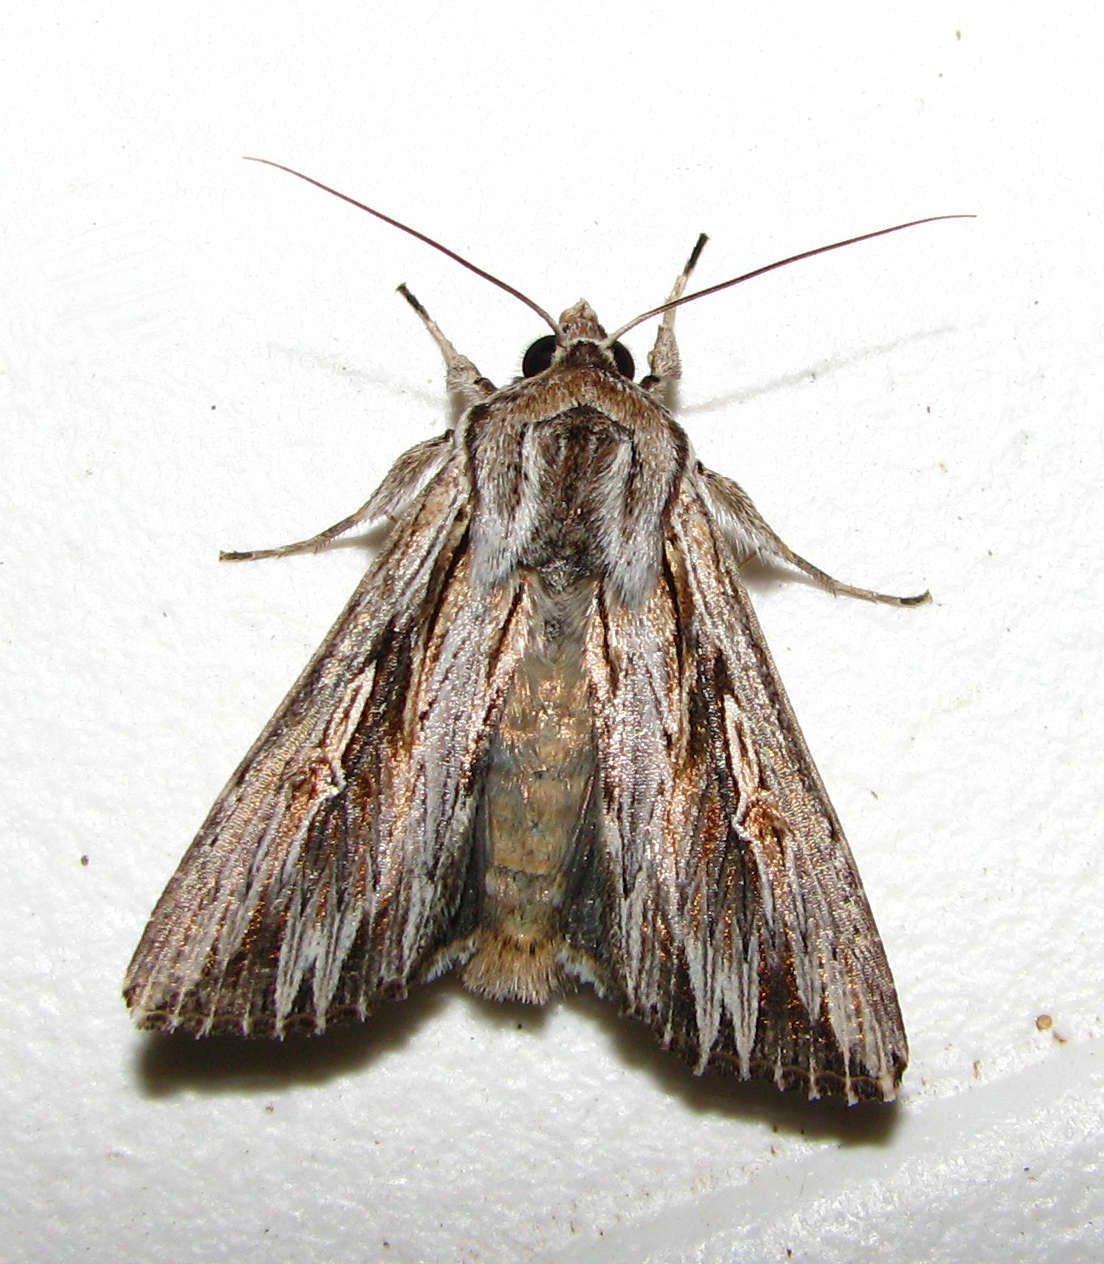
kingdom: Animalia
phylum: Arthropoda
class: Insecta
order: Lepidoptera
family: Noctuidae
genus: Persectania
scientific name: Persectania ewingii
